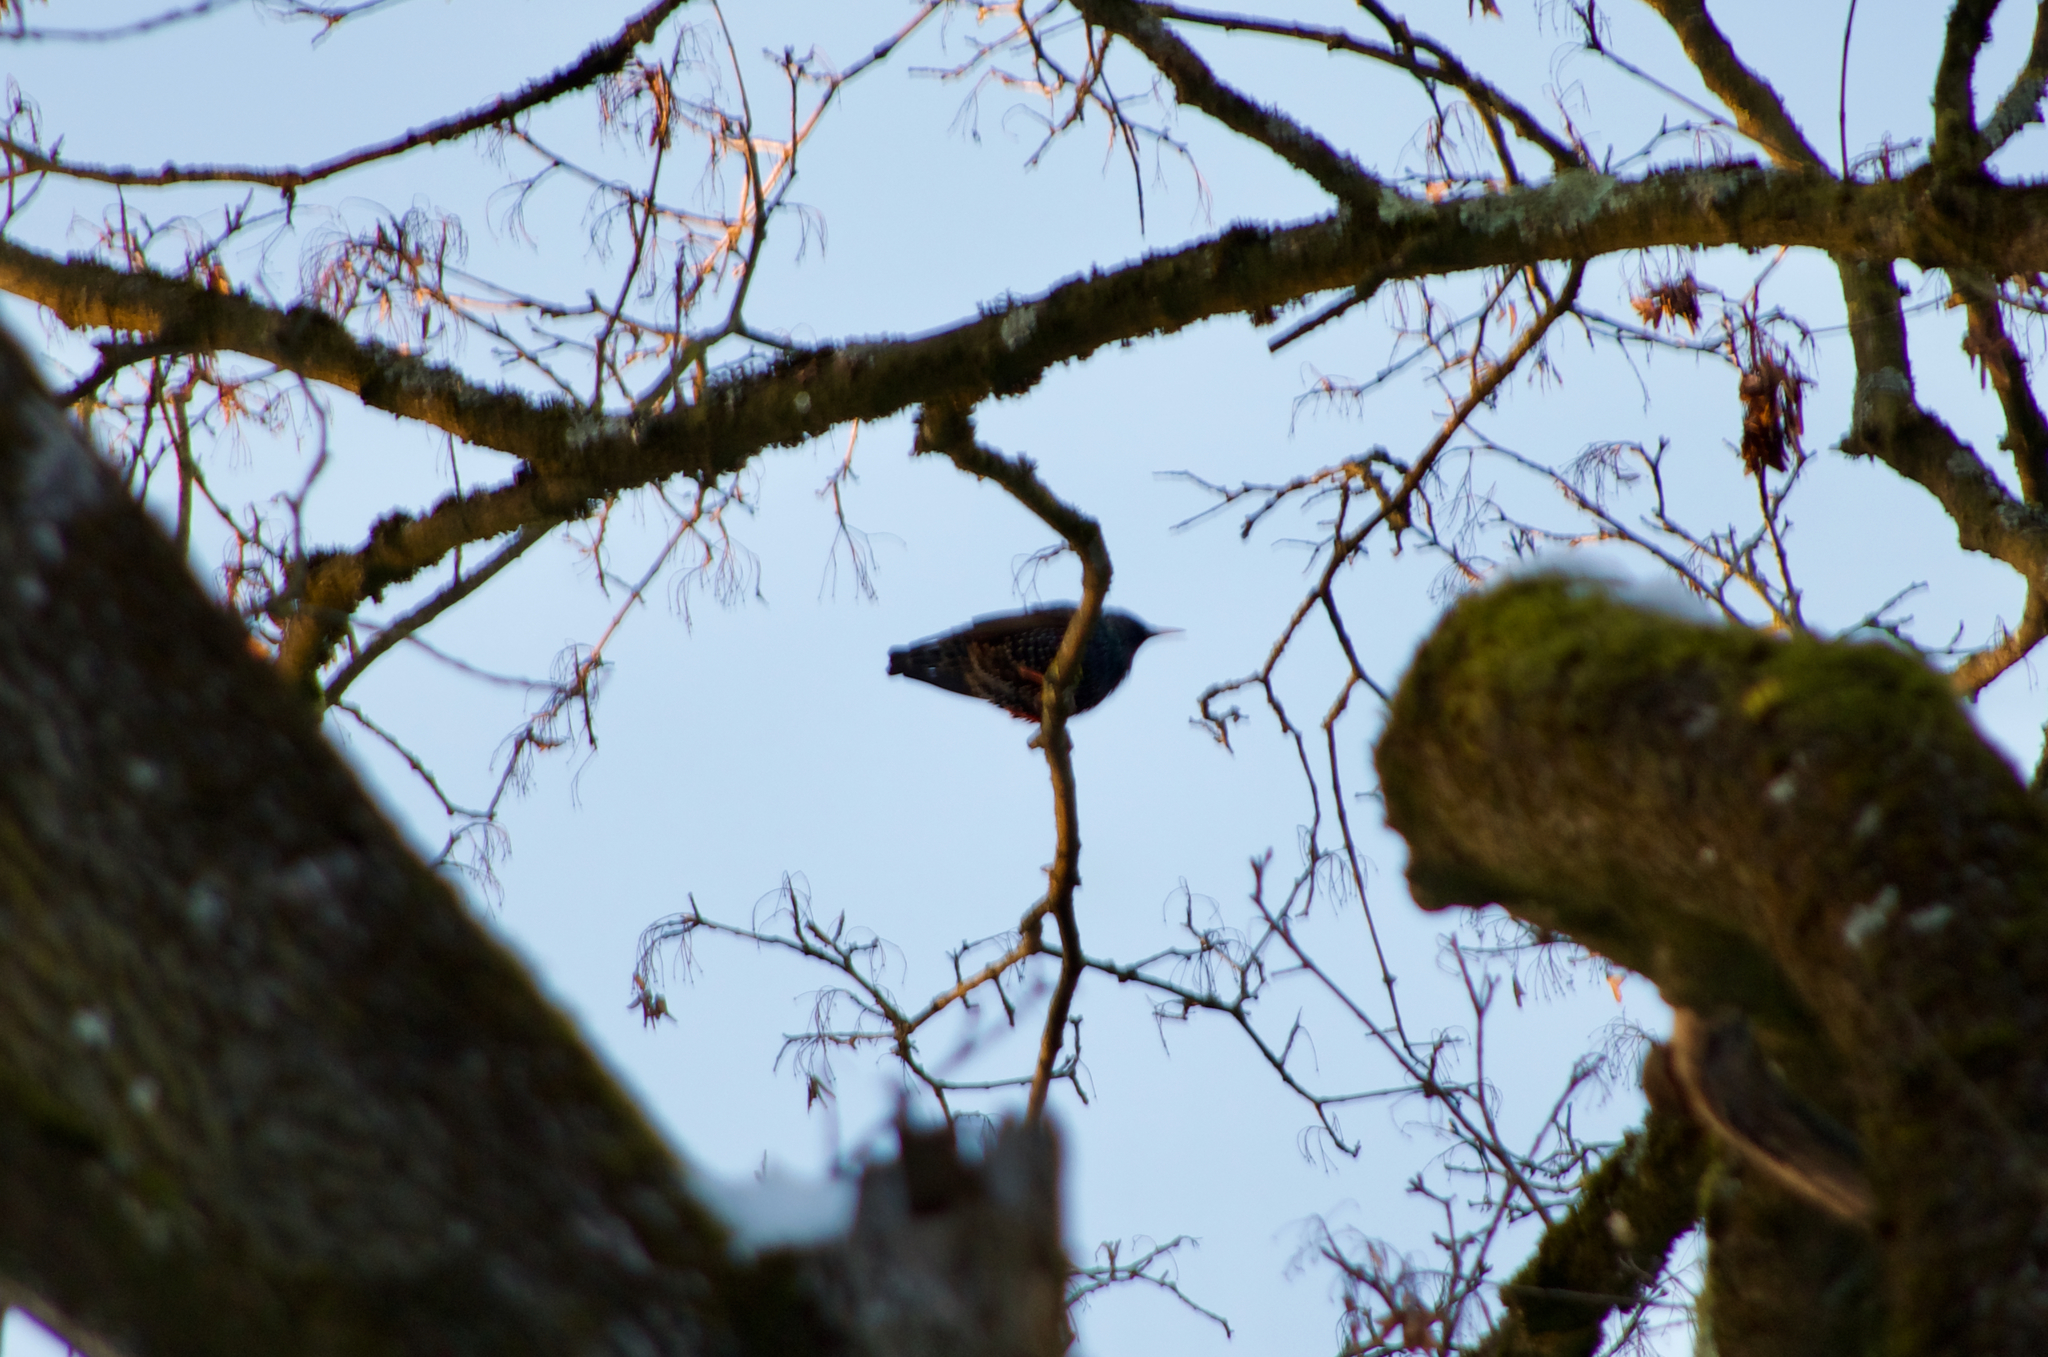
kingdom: Animalia
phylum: Chordata
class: Aves
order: Passeriformes
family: Sturnidae
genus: Sturnus
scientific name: Sturnus vulgaris
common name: Common starling
